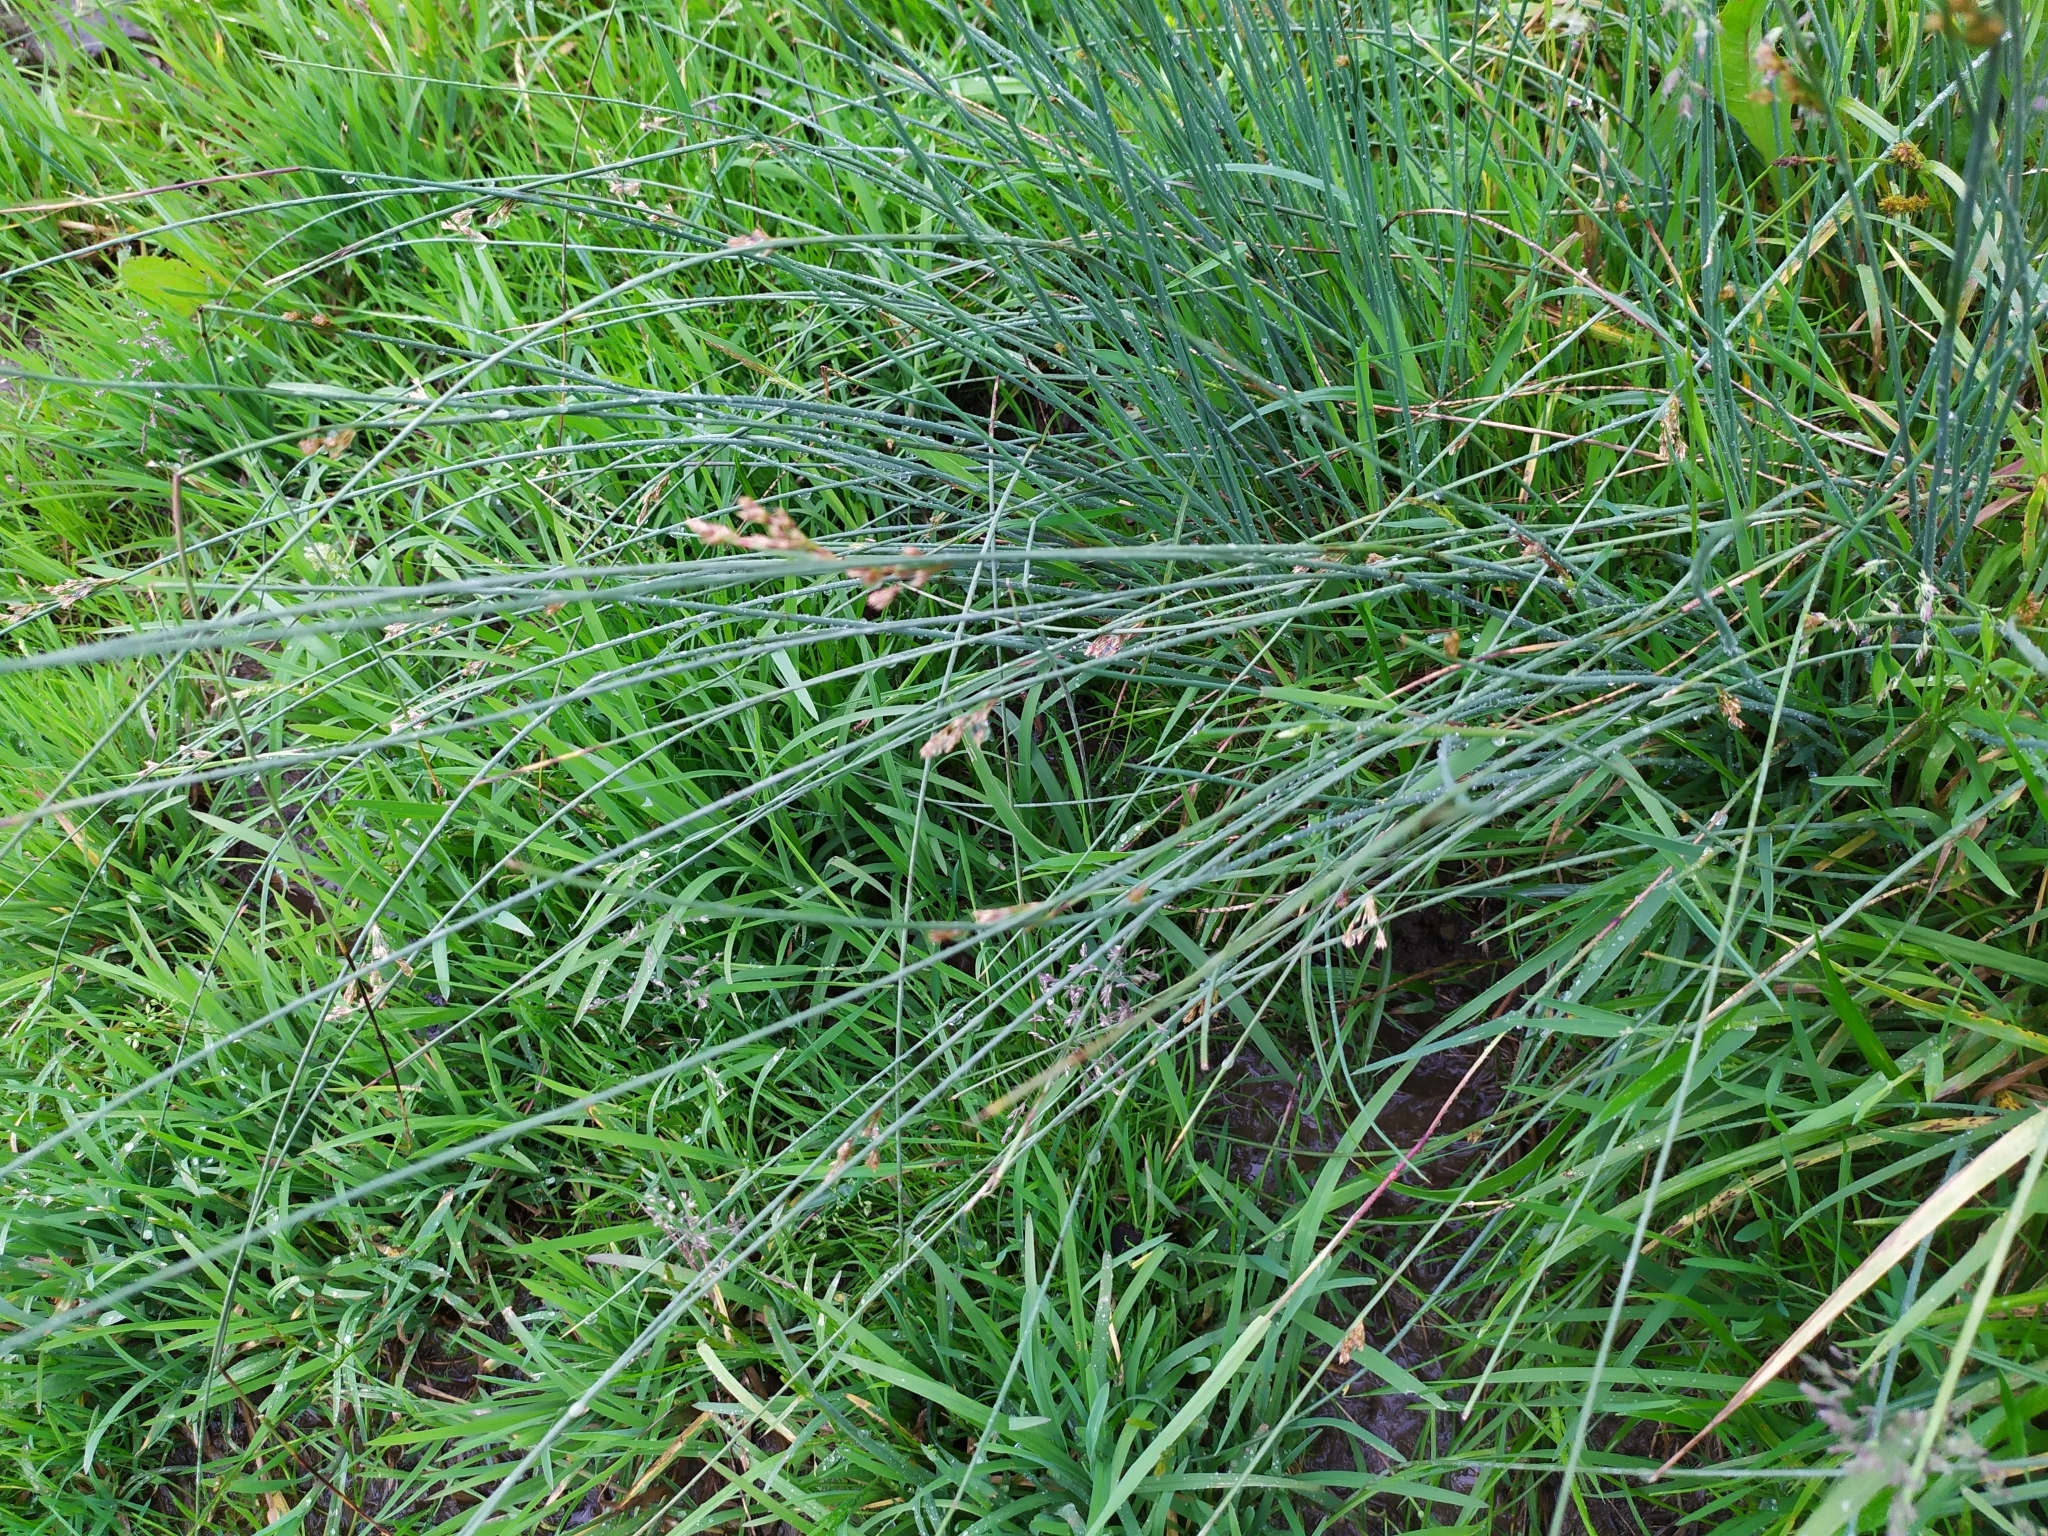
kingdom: Plantae
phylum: Tracheophyta
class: Liliopsida
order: Poales
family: Juncaceae
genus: Juncus
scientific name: Juncus inflexus
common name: Hard rush
